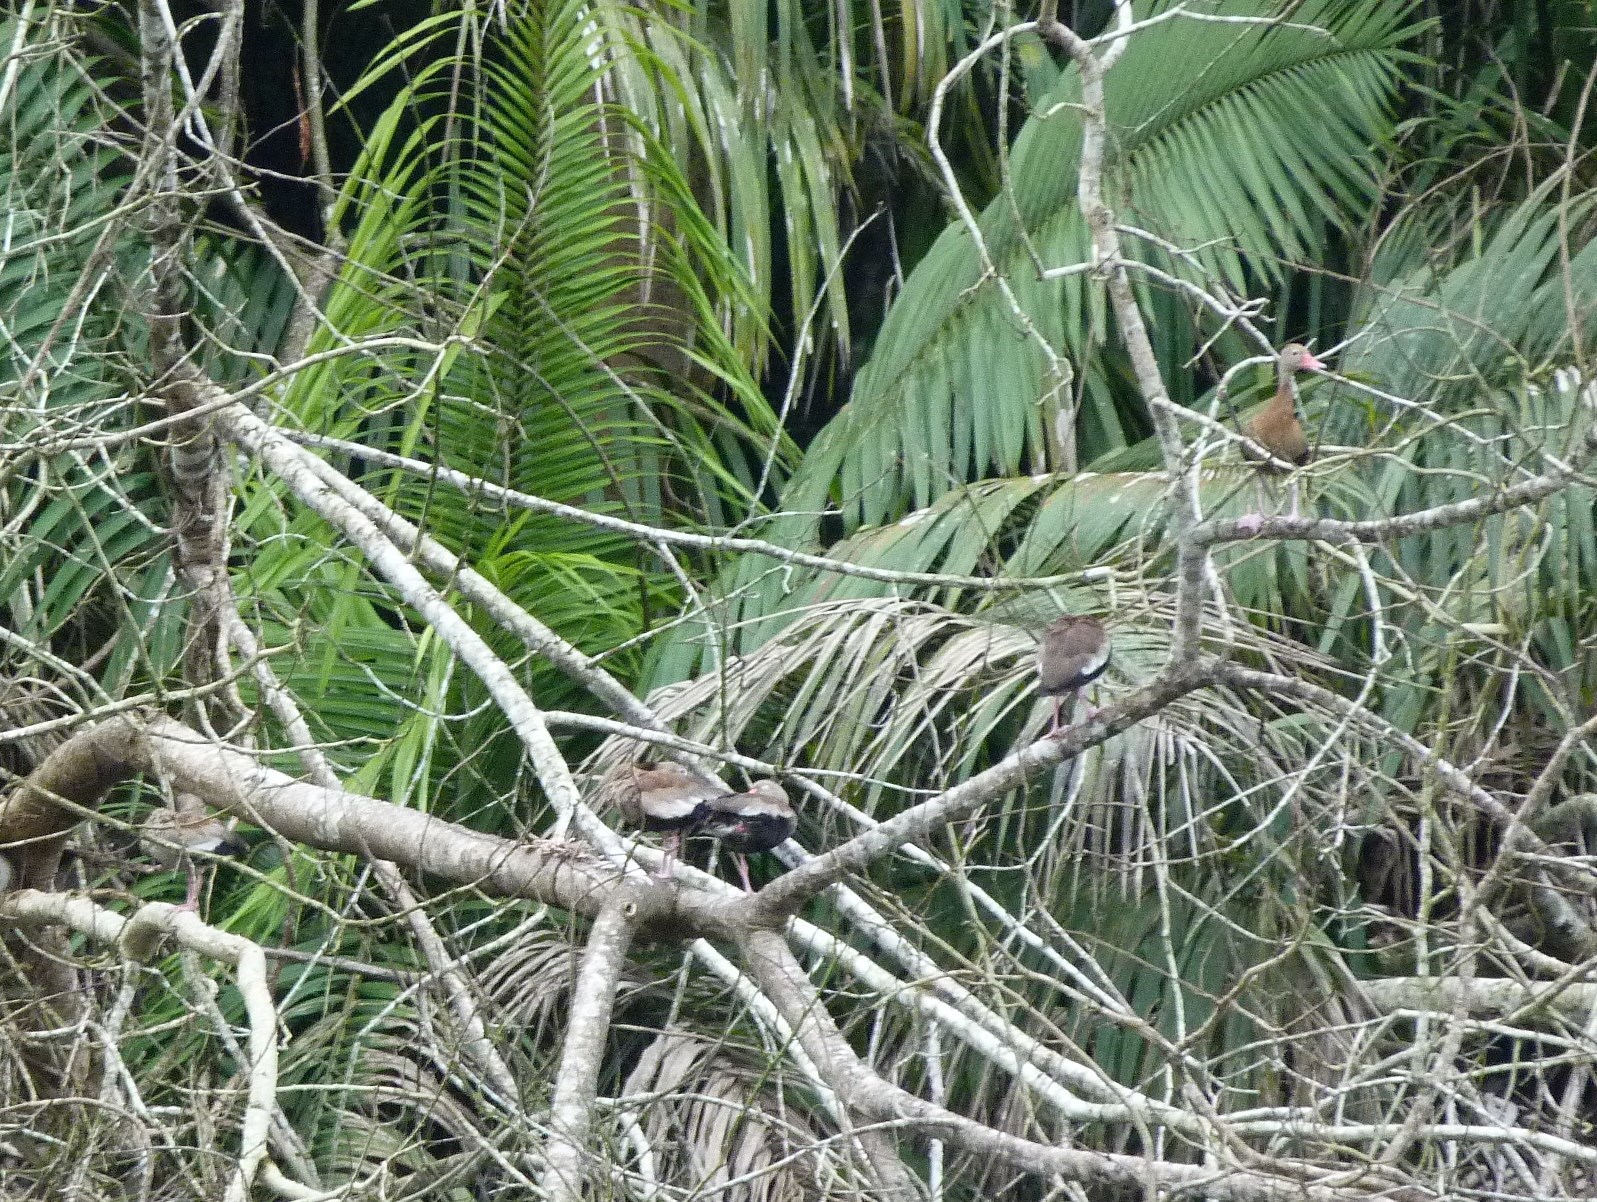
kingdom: Animalia
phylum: Chordata
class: Aves
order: Anseriformes
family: Anatidae
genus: Dendrocygna
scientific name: Dendrocygna autumnalis
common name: Black-bellied whistling duck
